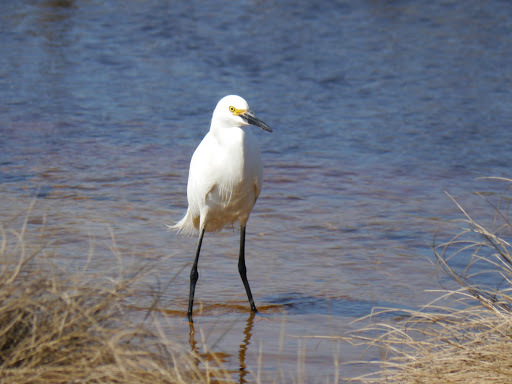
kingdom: Animalia
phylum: Chordata
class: Aves
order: Pelecaniformes
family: Ardeidae
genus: Egretta
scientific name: Egretta thula
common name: Snowy egret
